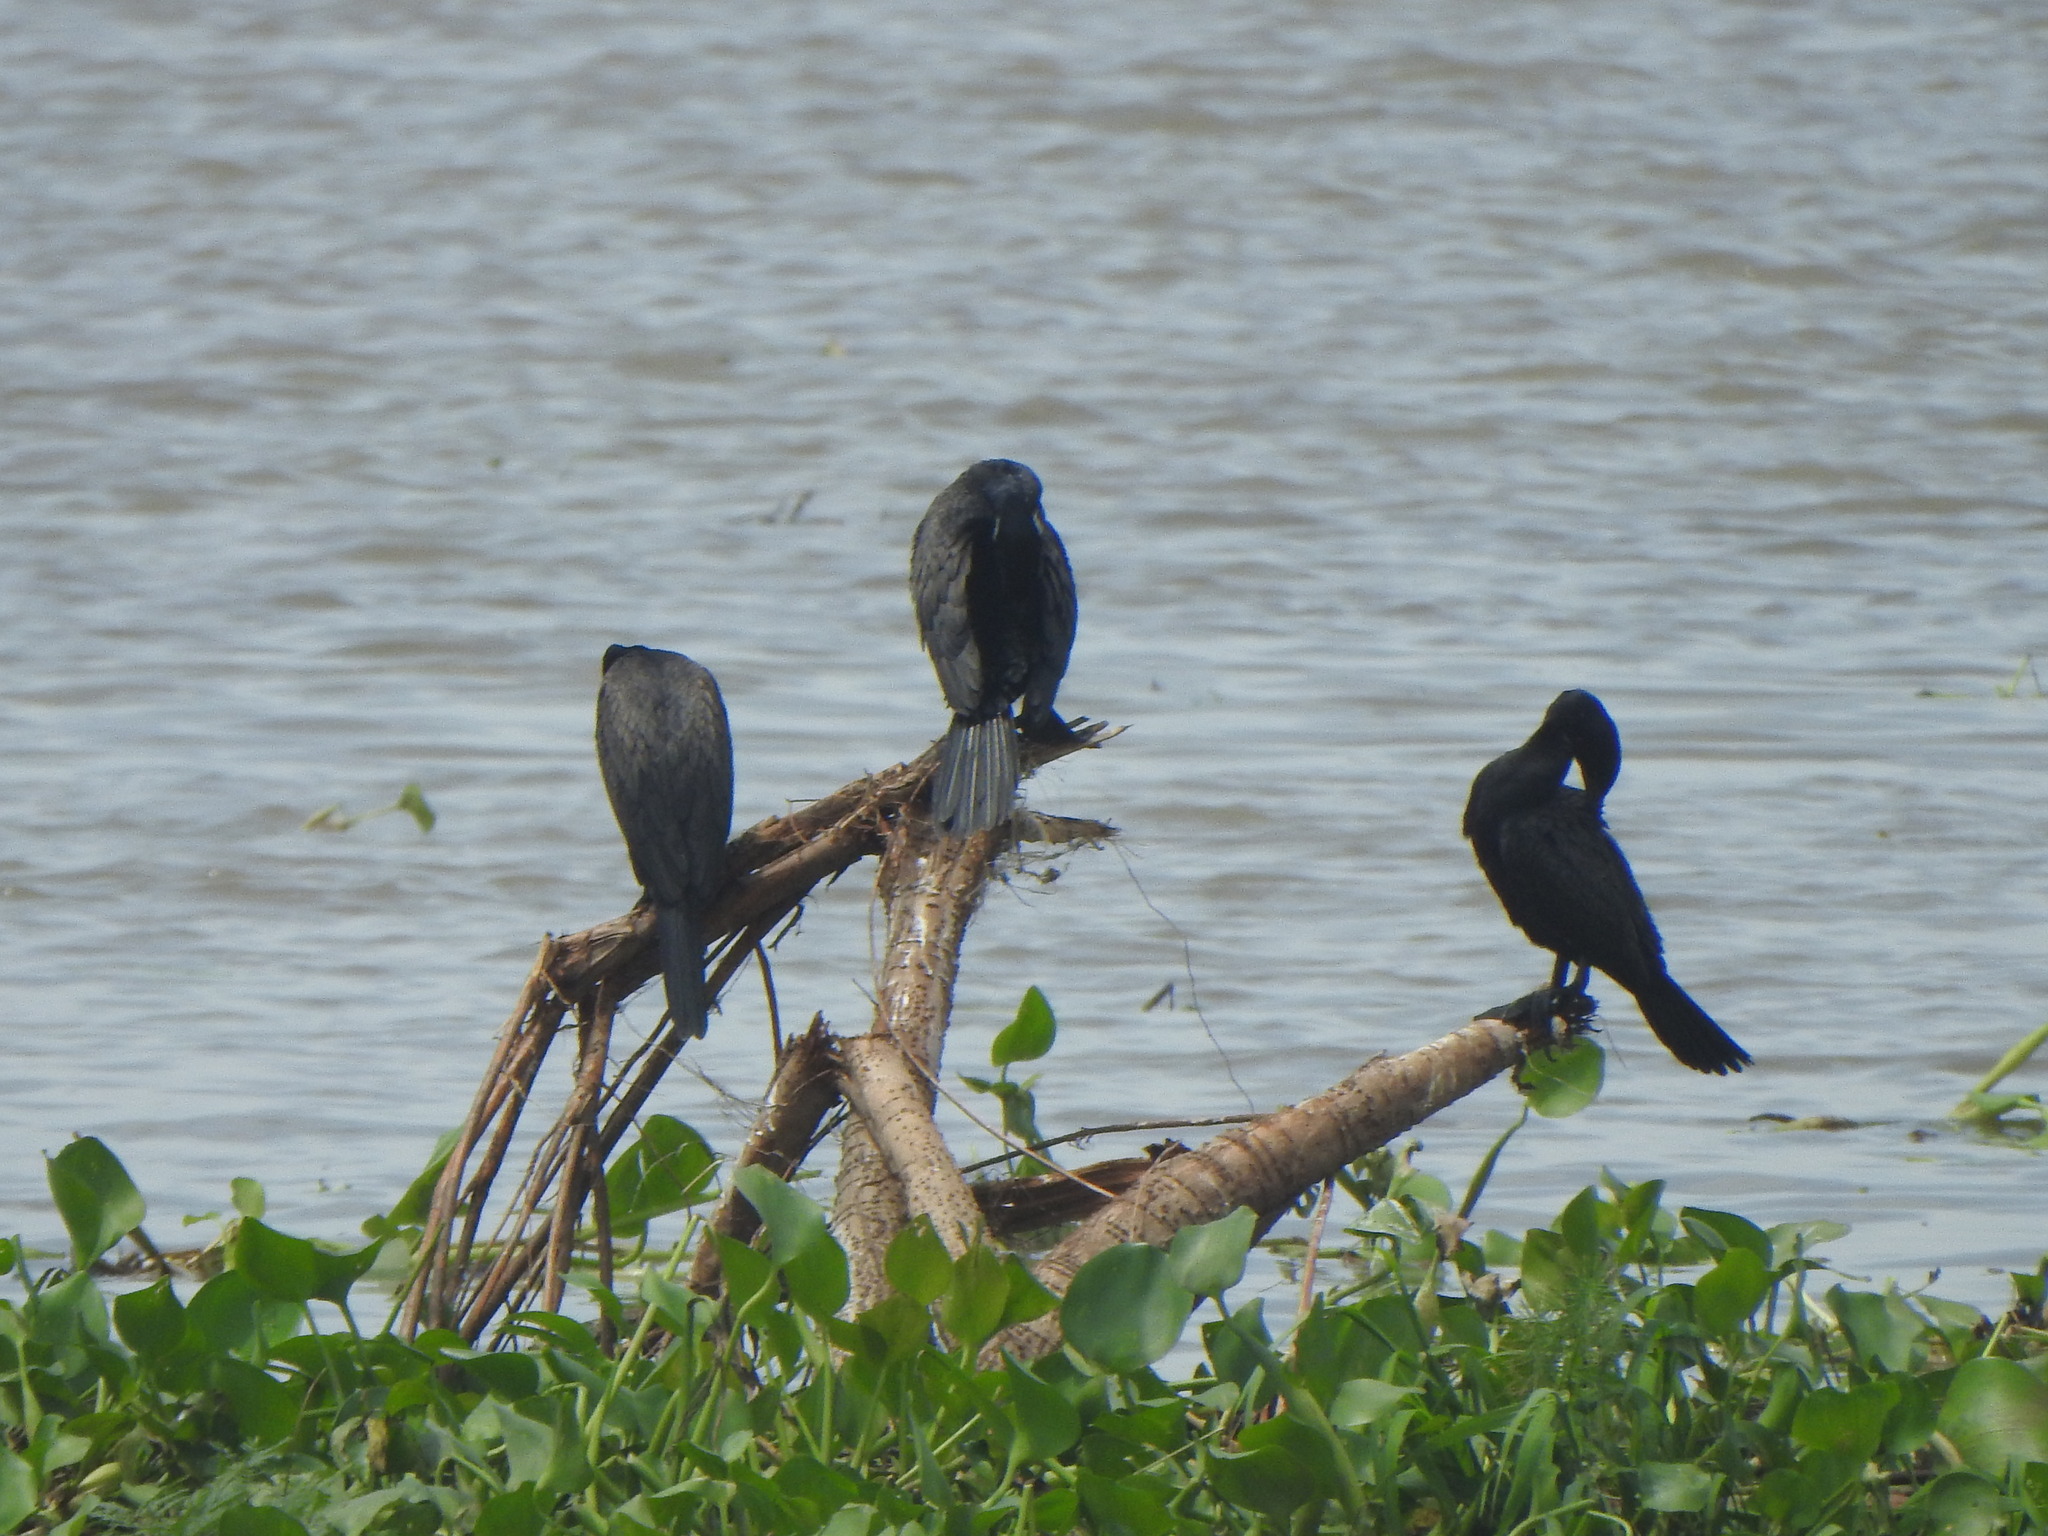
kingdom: Animalia
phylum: Chordata
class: Aves
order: Suliformes
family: Phalacrocoracidae
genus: Phalacrocorax
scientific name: Phalacrocorax brasilianus
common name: Neotropic cormorant
